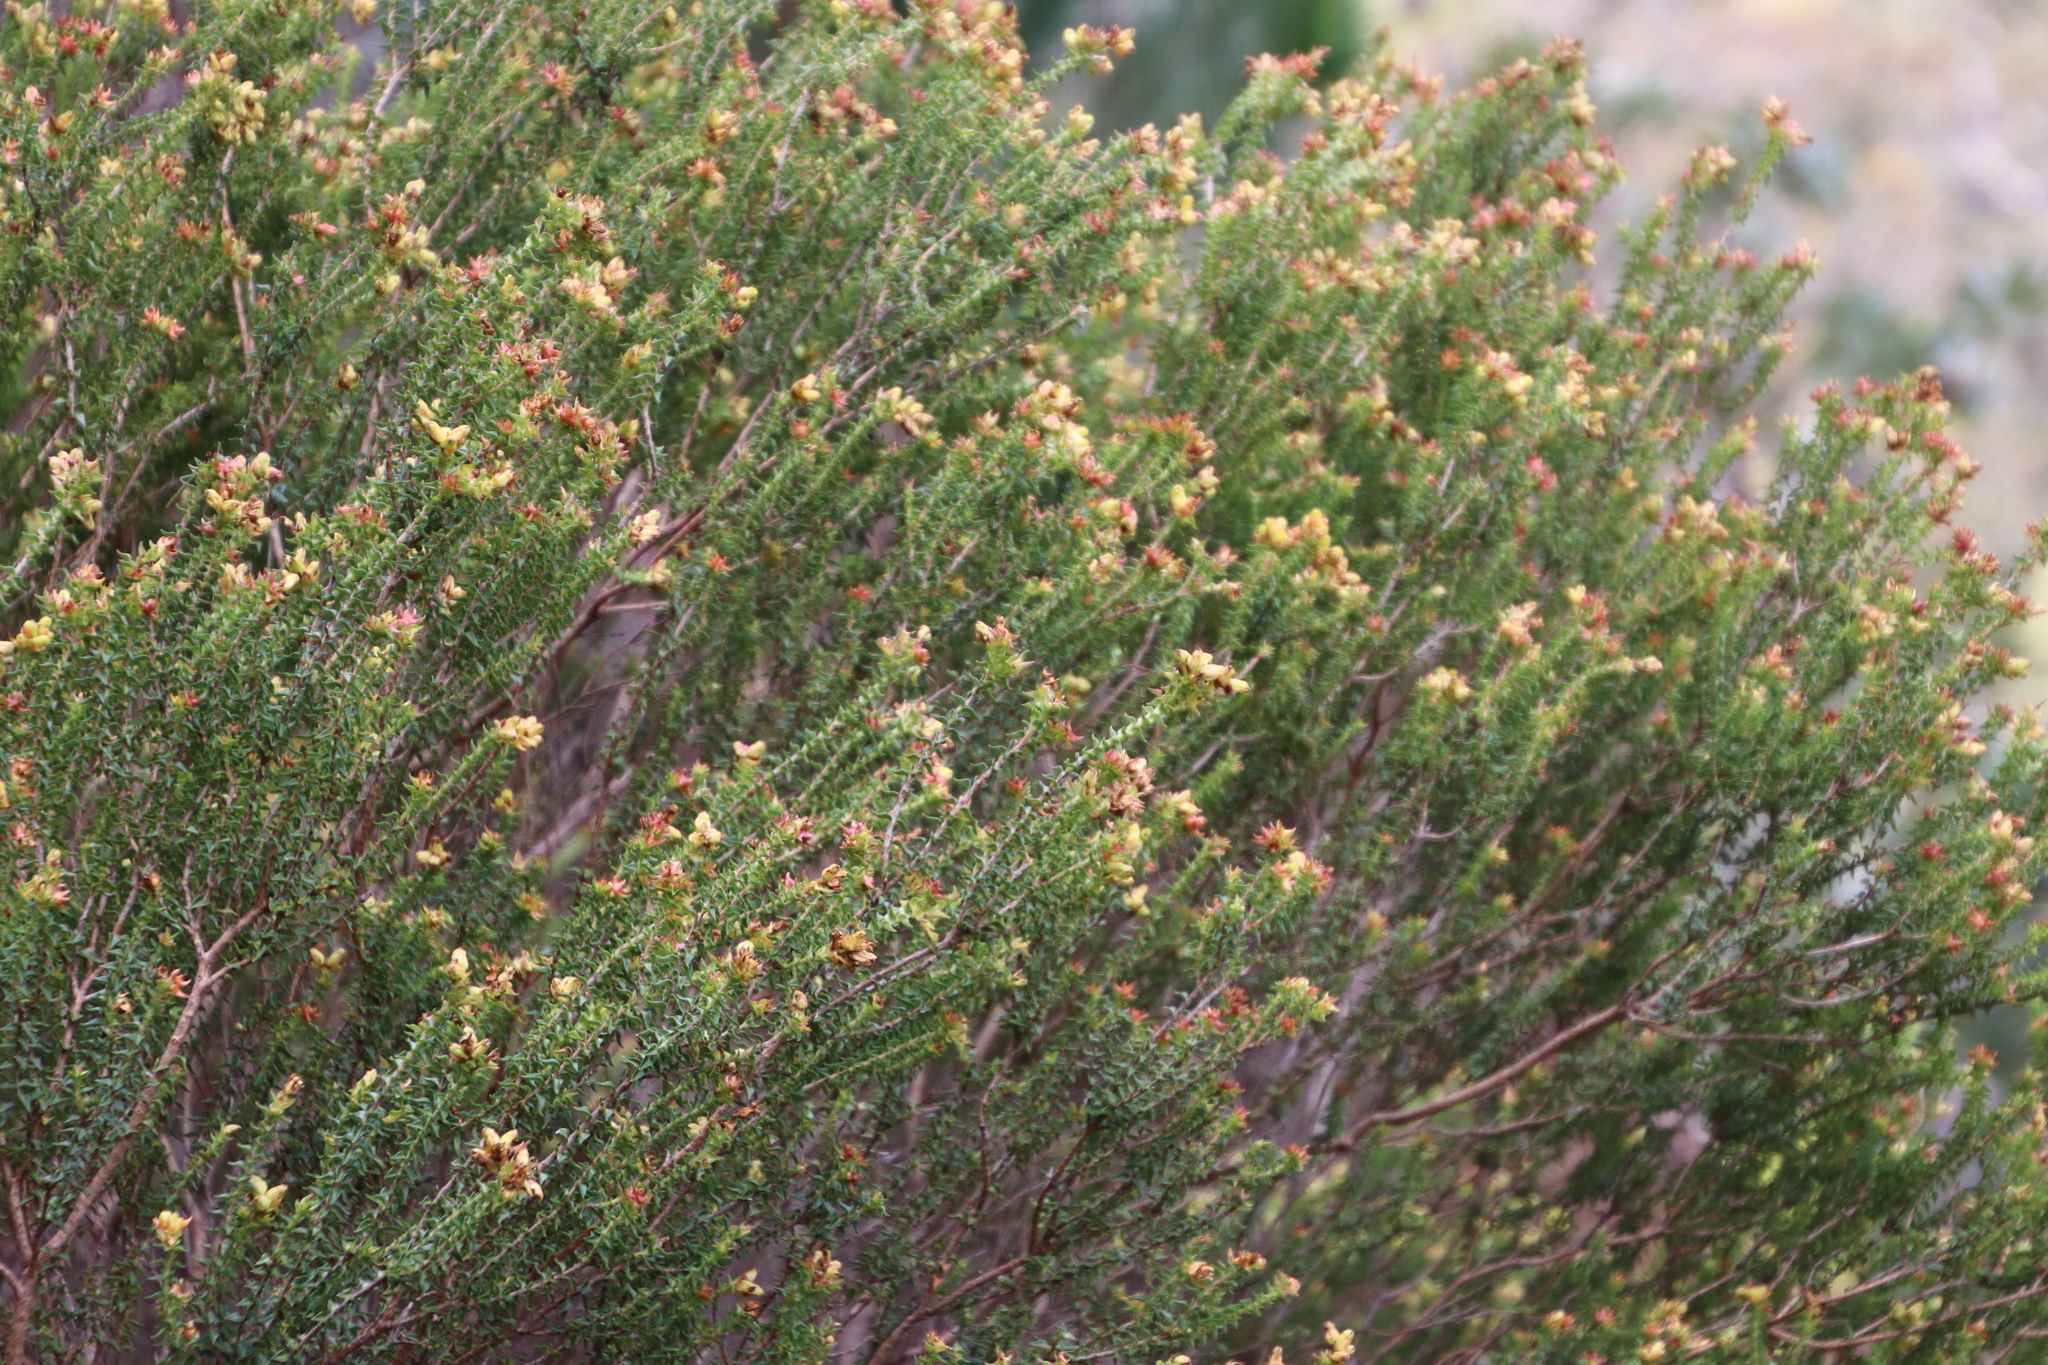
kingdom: Plantae
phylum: Tracheophyta
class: Magnoliopsida
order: Myrtales
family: Penaeaceae
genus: Penaea
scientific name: Penaea mucronata
